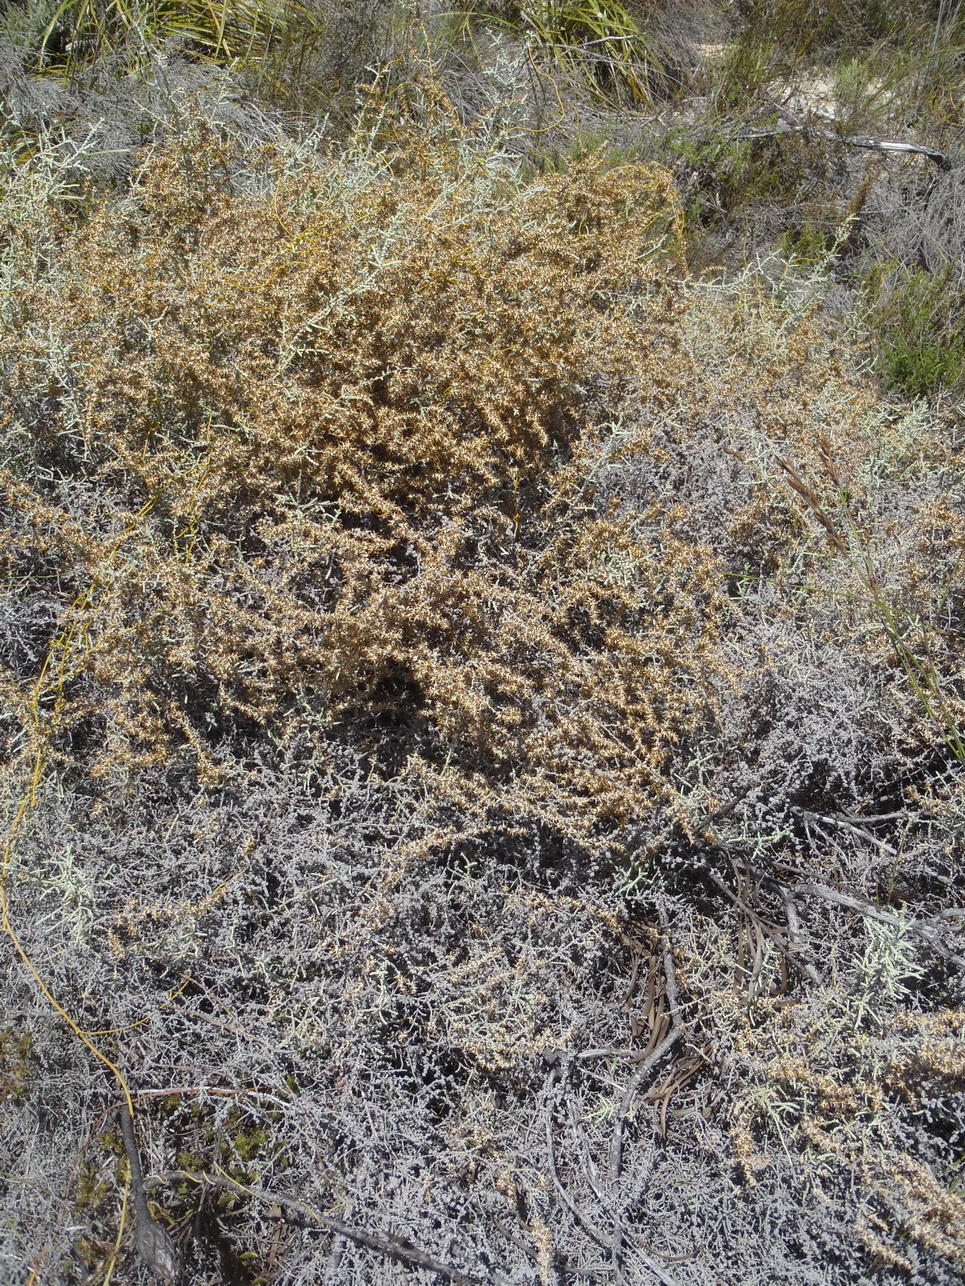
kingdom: Plantae
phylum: Tracheophyta
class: Magnoliopsida
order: Asterales
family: Asteraceae
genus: Seriphium
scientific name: Seriphium plumosum
